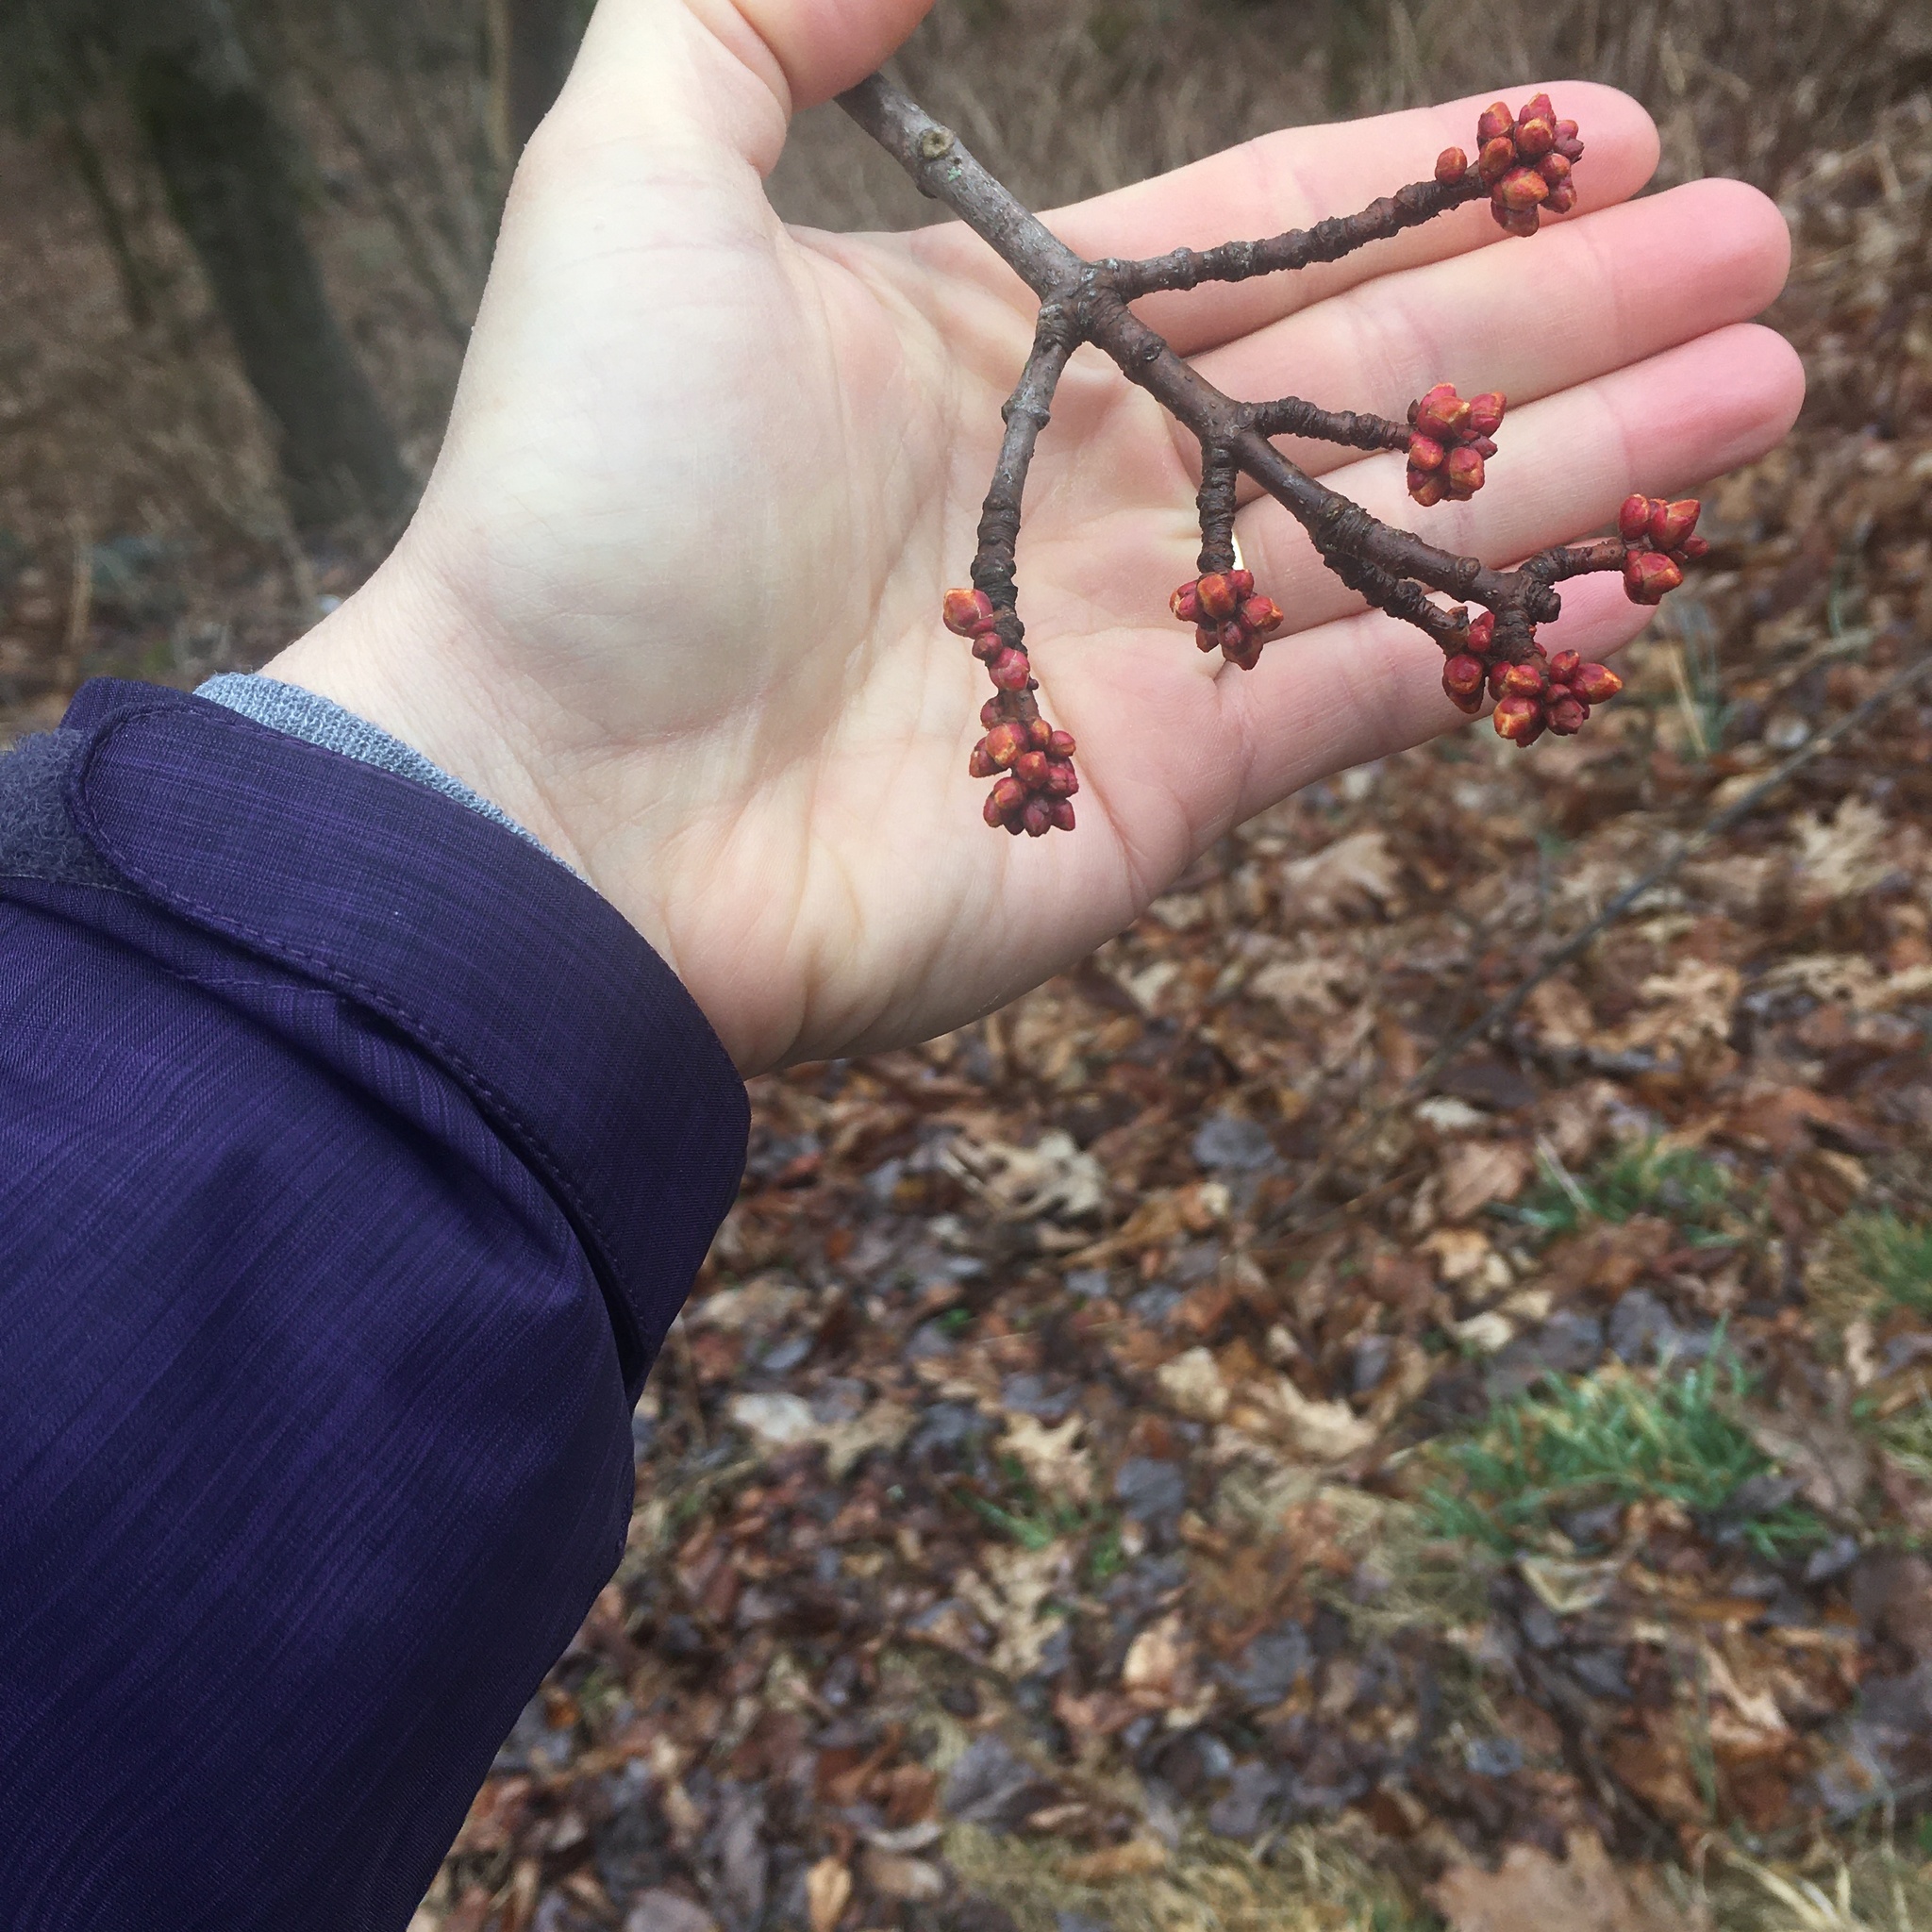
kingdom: Plantae
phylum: Tracheophyta
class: Magnoliopsida
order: Sapindales
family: Sapindaceae
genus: Acer
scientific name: Acer rubrum
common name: Red maple
